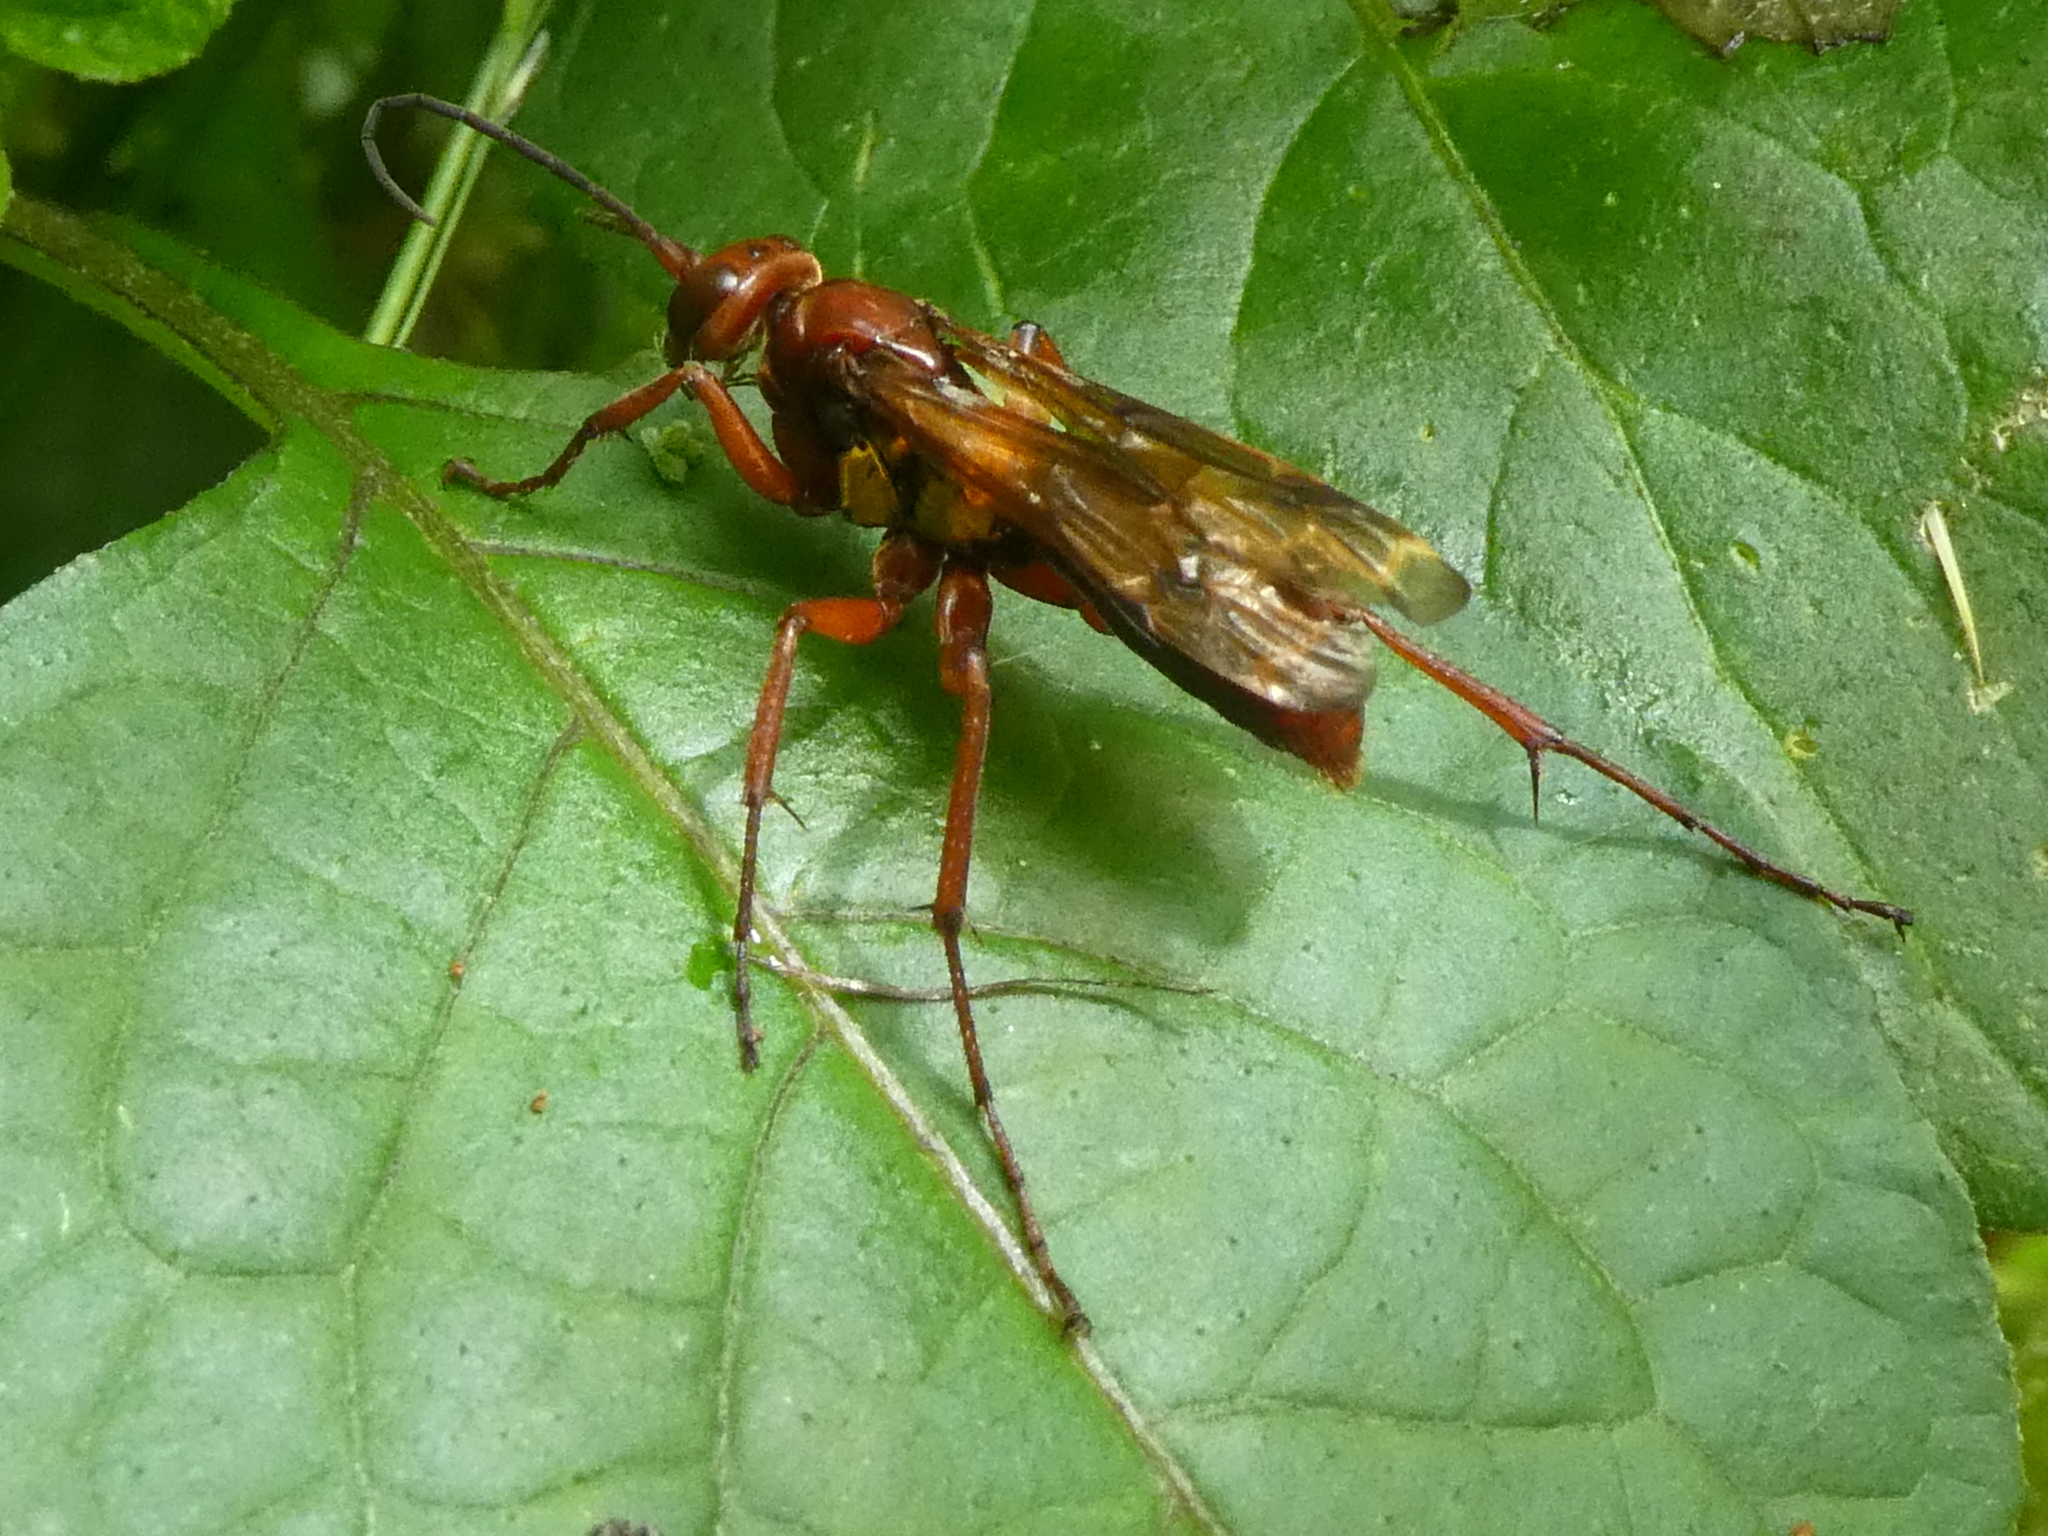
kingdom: Animalia
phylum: Arthropoda
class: Insecta
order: Hymenoptera
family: Pompilidae
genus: Sphictostethus
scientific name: Sphictostethus nitidus
